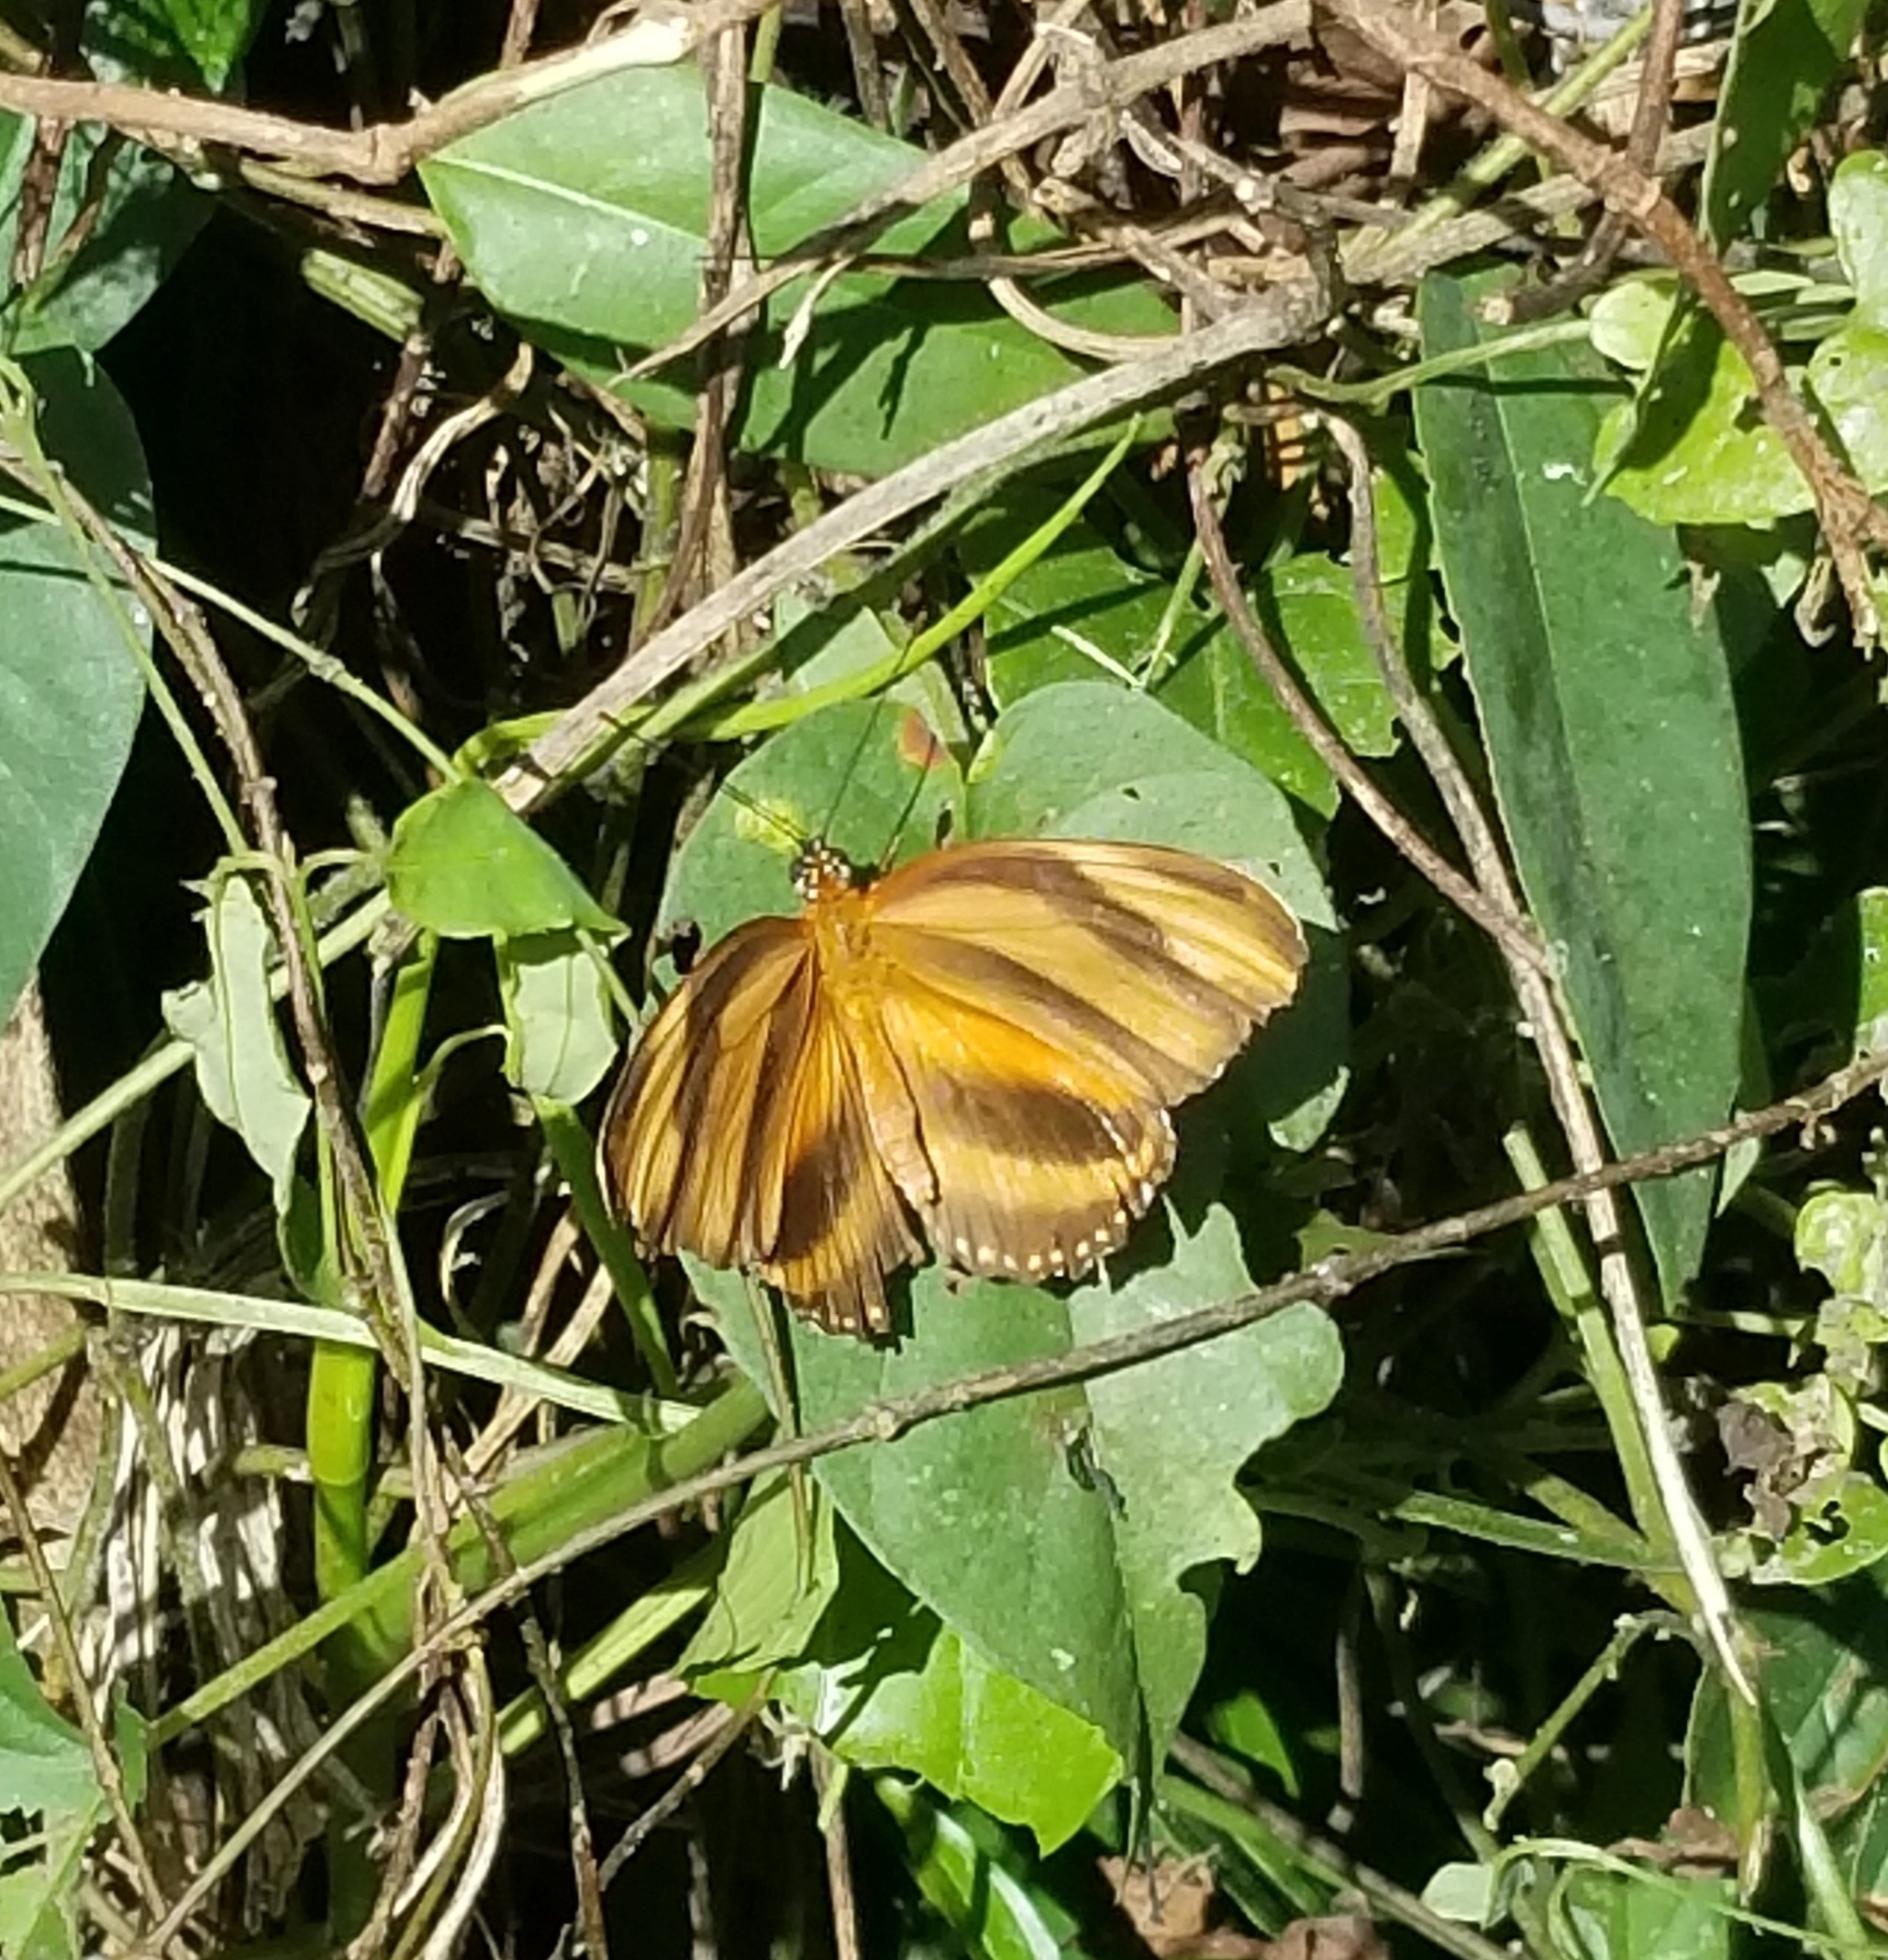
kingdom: Animalia
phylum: Arthropoda
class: Insecta
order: Lepidoptera
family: Nymphalidae
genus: Dryadula
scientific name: Dryadula phaetusa
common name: Banded orange heliconian
